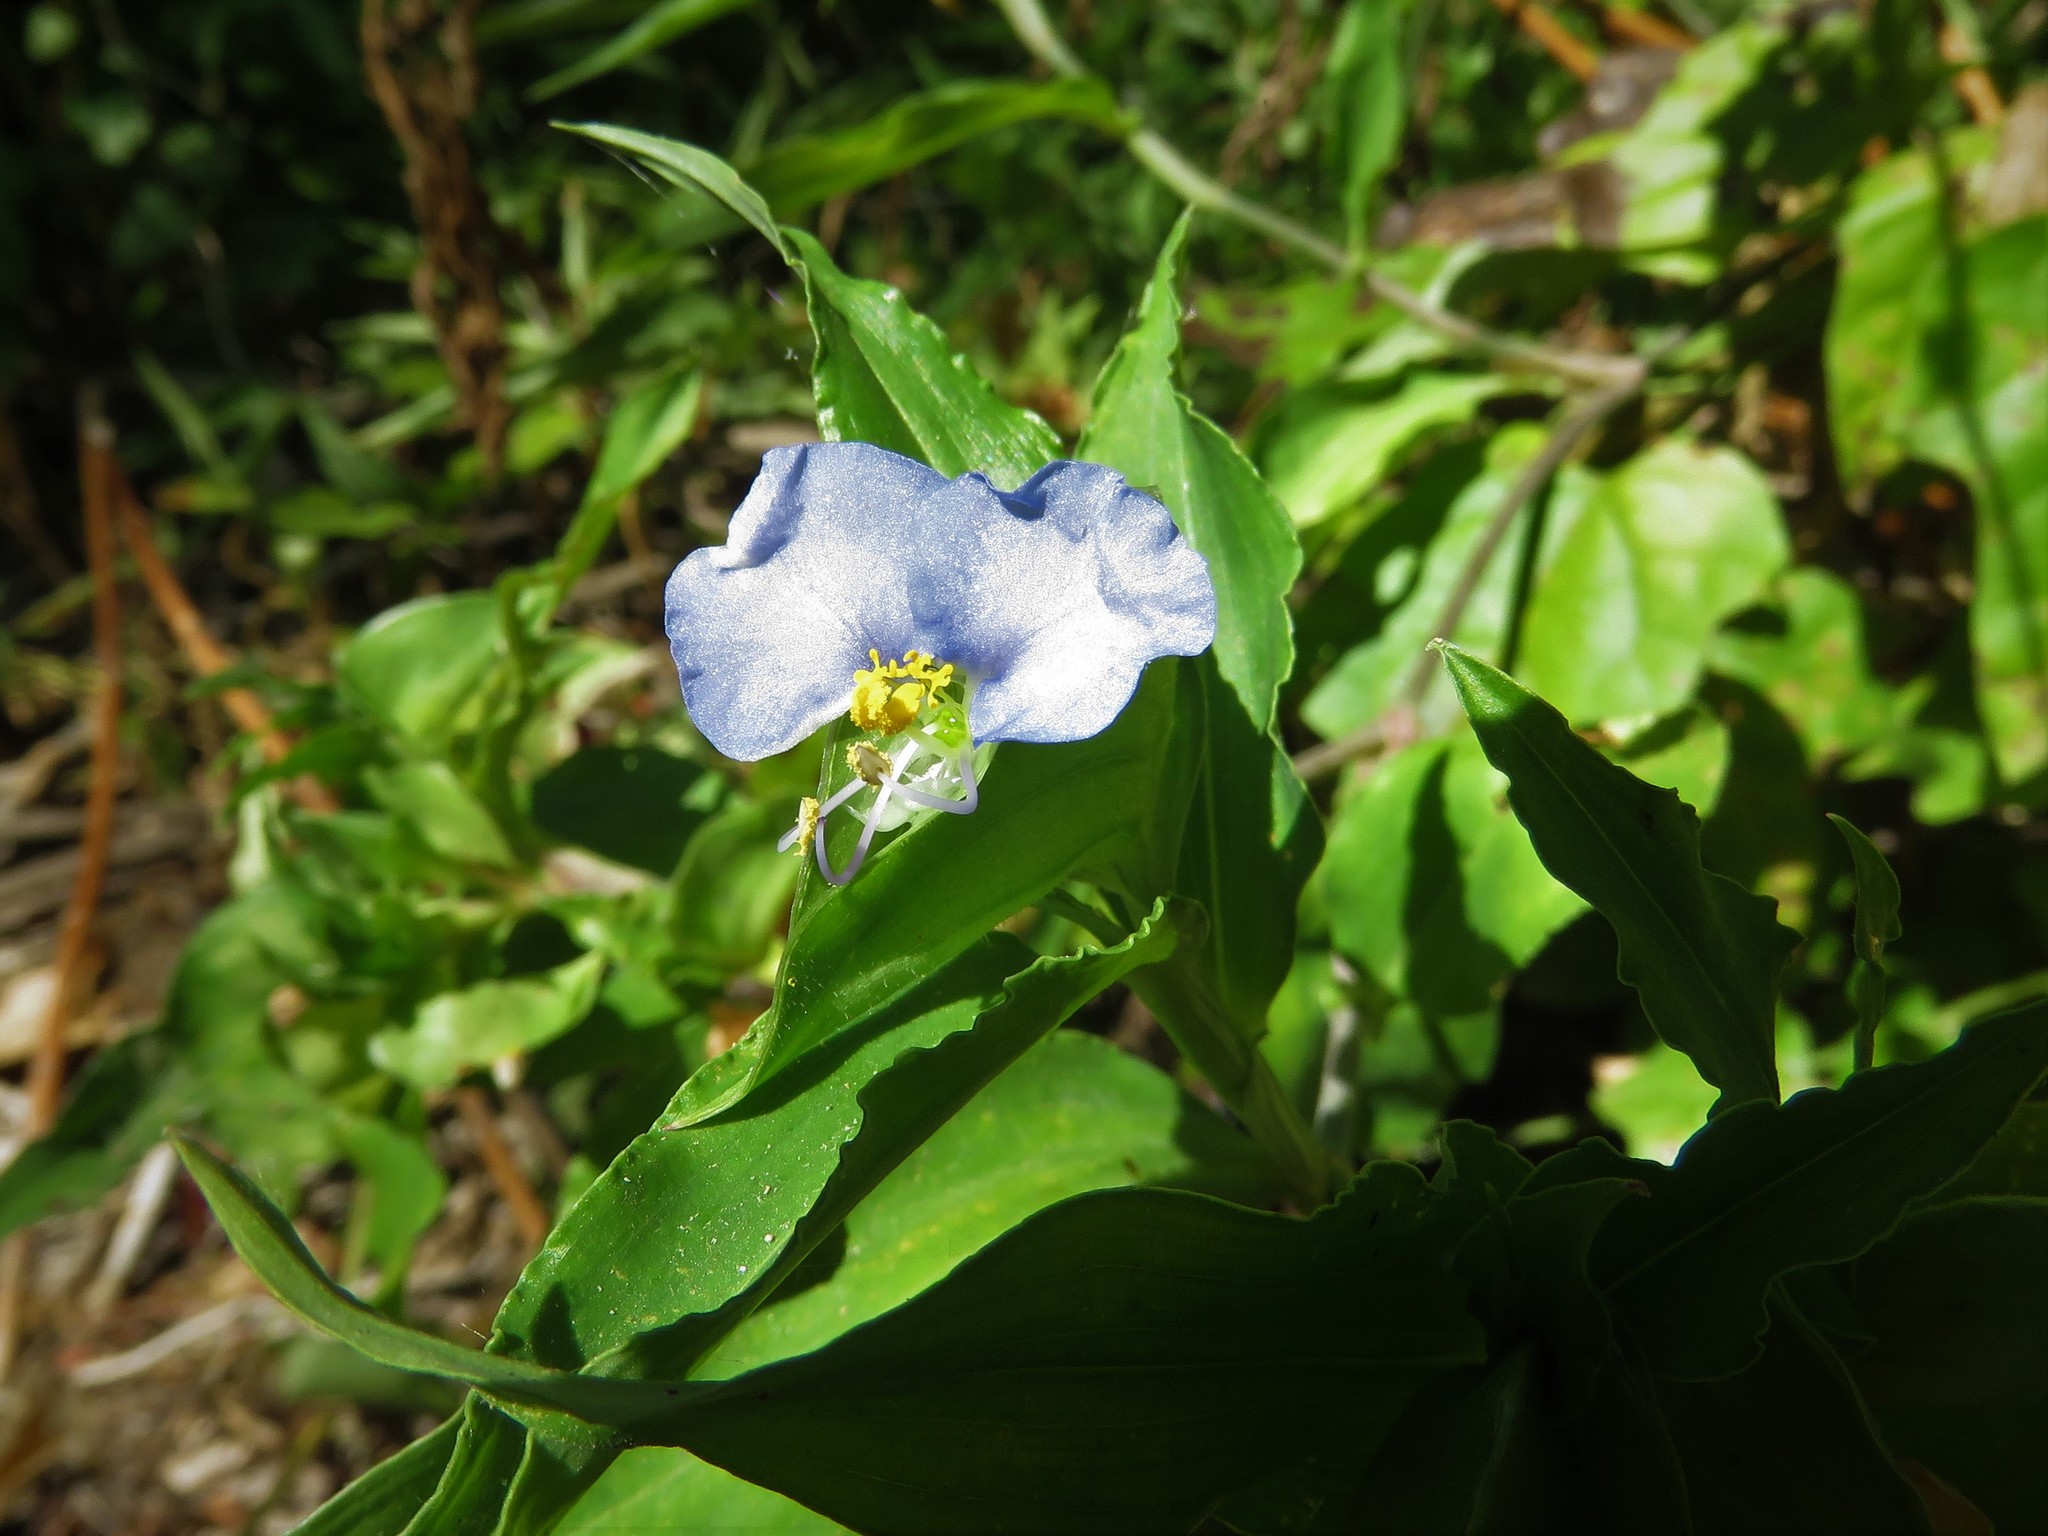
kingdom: Plantae
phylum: Tracheophyta
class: Liliopsida
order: Commelinales
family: Commelinaceae
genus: Commelina
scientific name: Commelina erecta
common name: Blousel blommetjie
